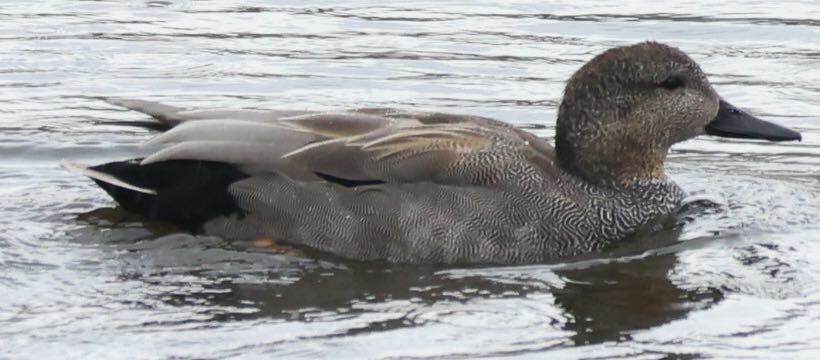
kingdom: Animalia
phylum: Chordata
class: Aves
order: Anseriformes
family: Anatidae
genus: Mareca
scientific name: Mareca strepera
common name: Gadwall
